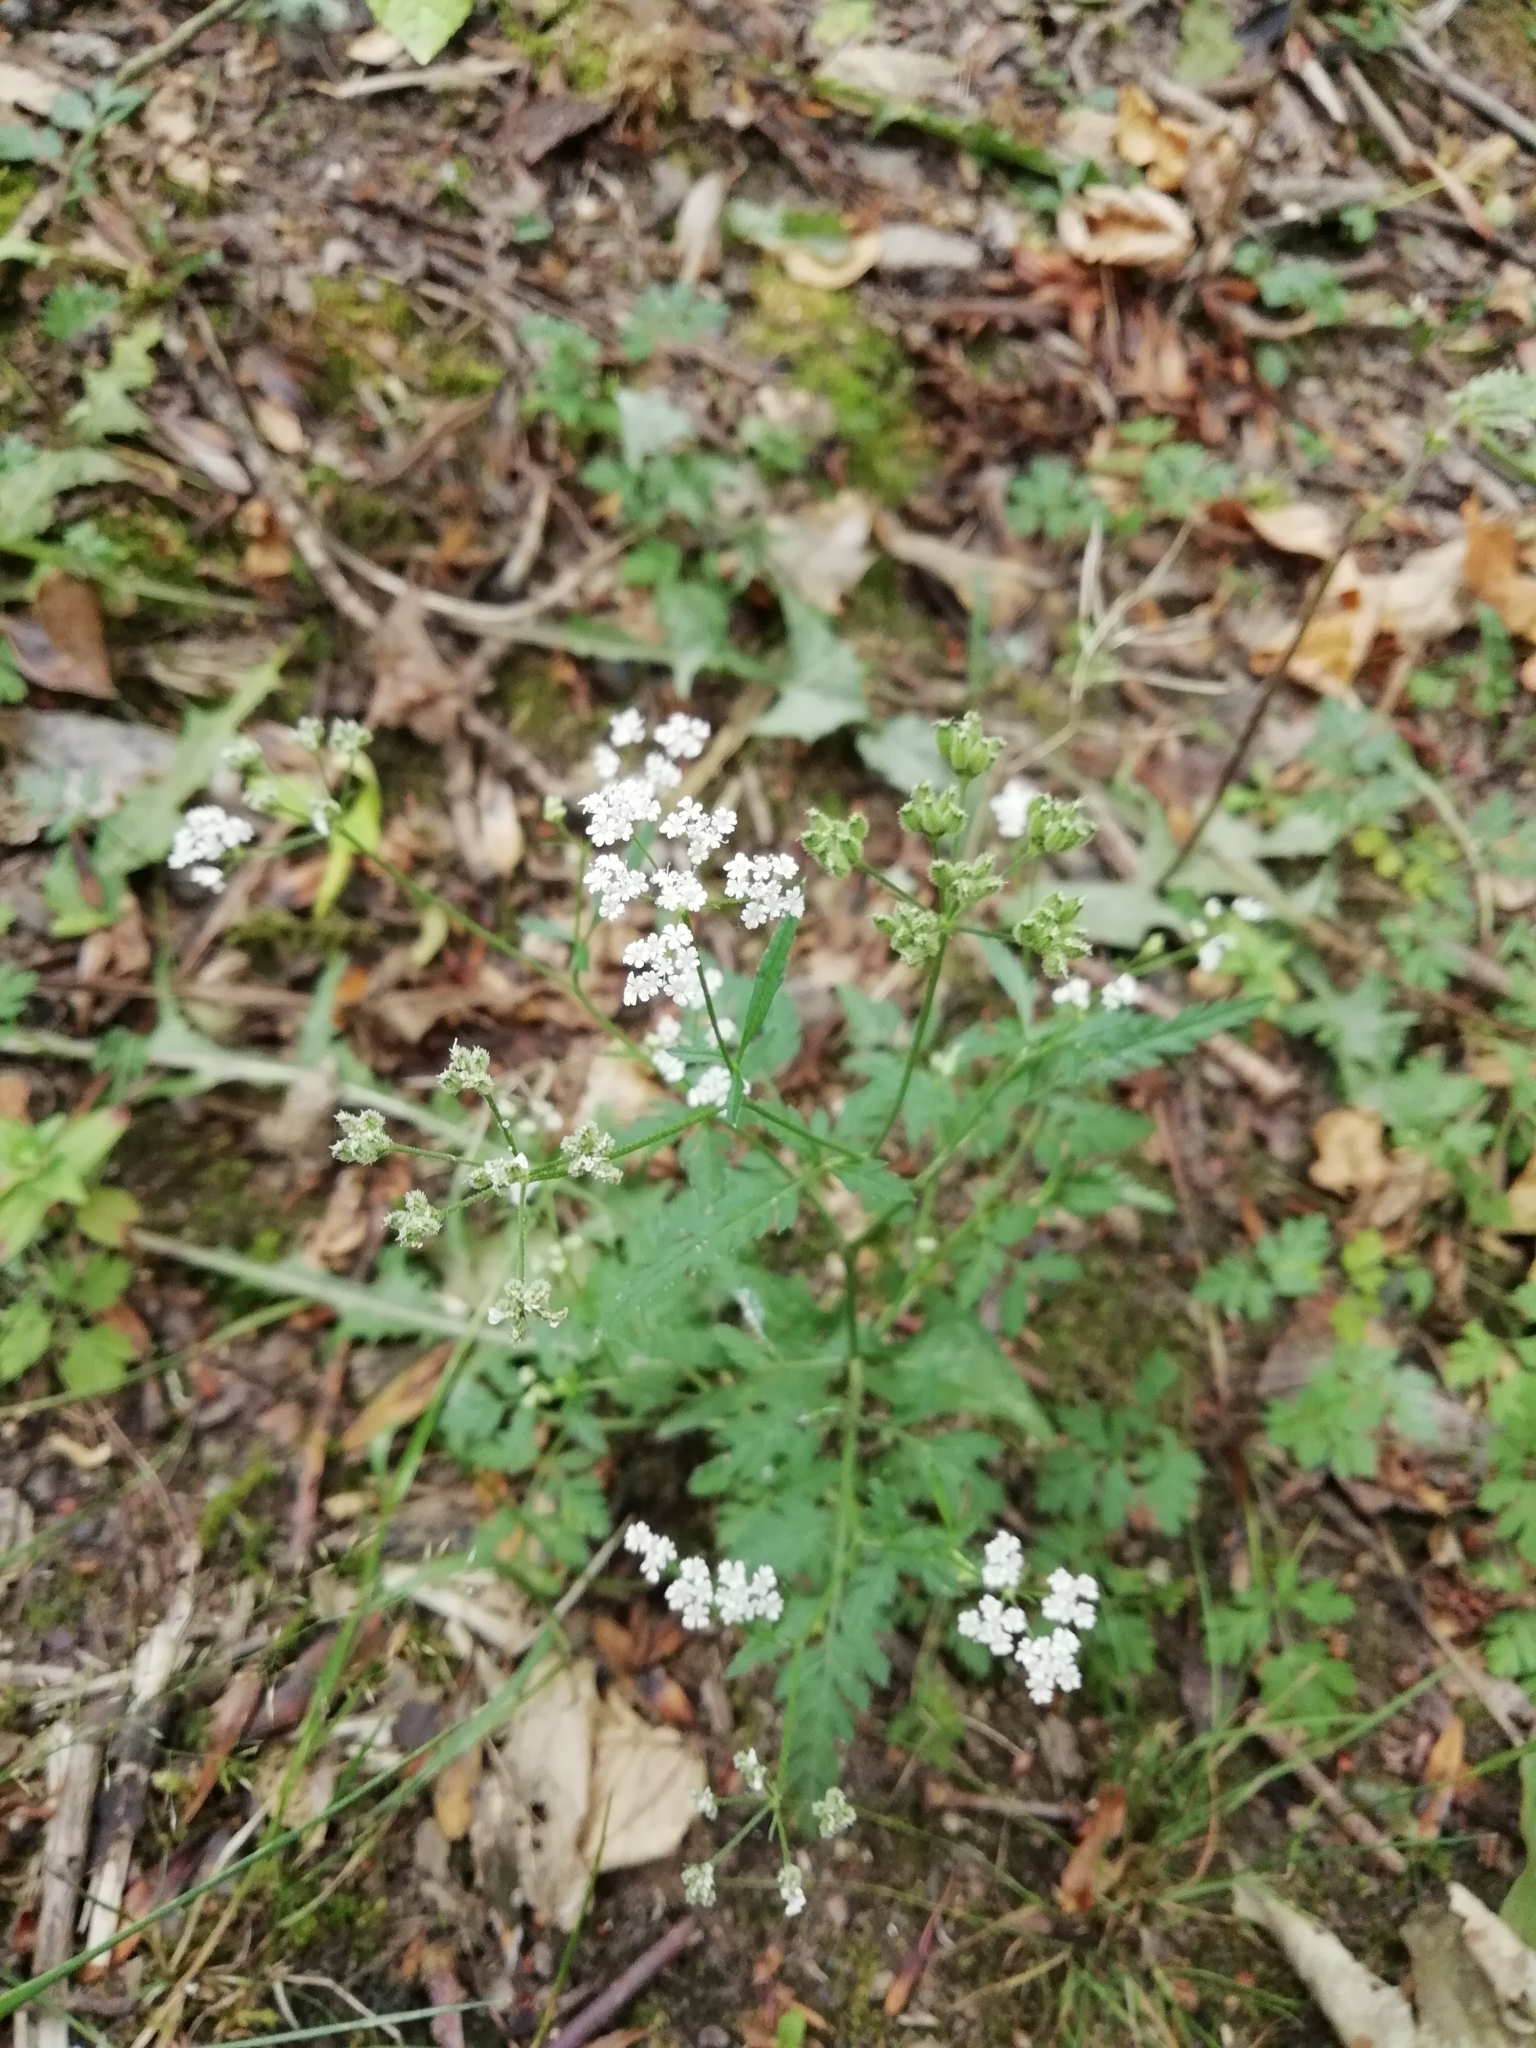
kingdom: Plantae
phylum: Tracheophyta
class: Magnoliopsida
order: Apiales
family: Apiaceae
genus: Torilis
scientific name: Torilis japonica
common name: Upright hedge-parsley
